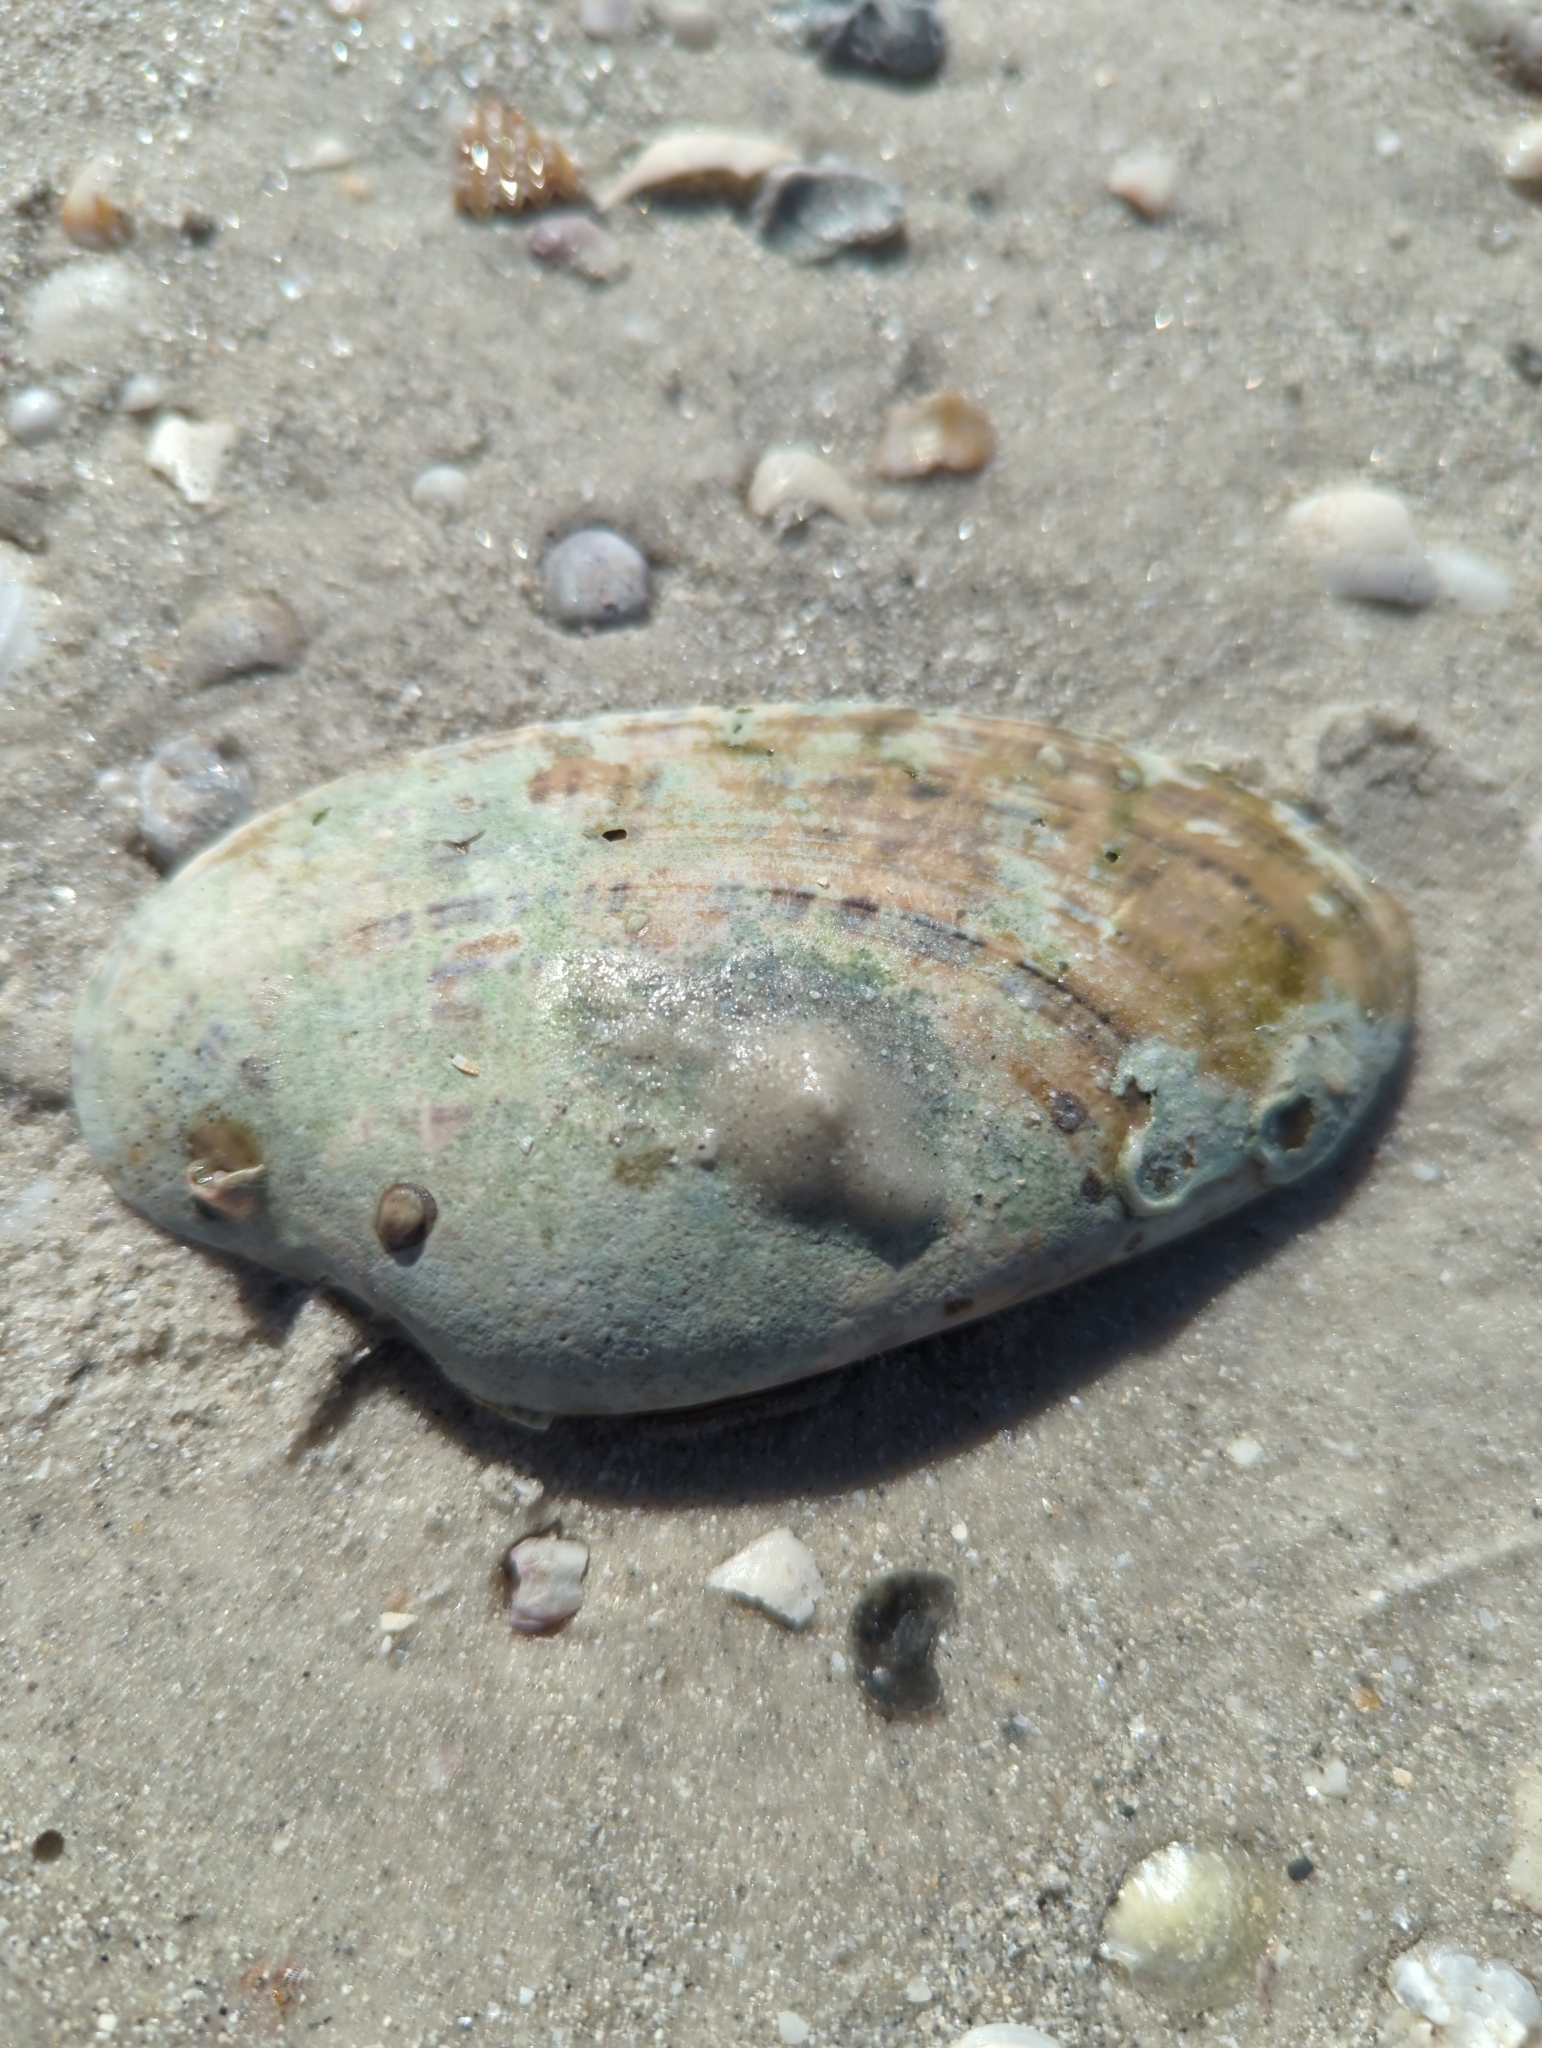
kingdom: Animalia
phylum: Mollusca
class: Bivalvia
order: Venerida
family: Veneridae
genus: Macrocallista
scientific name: Macrocallista nimbosa
